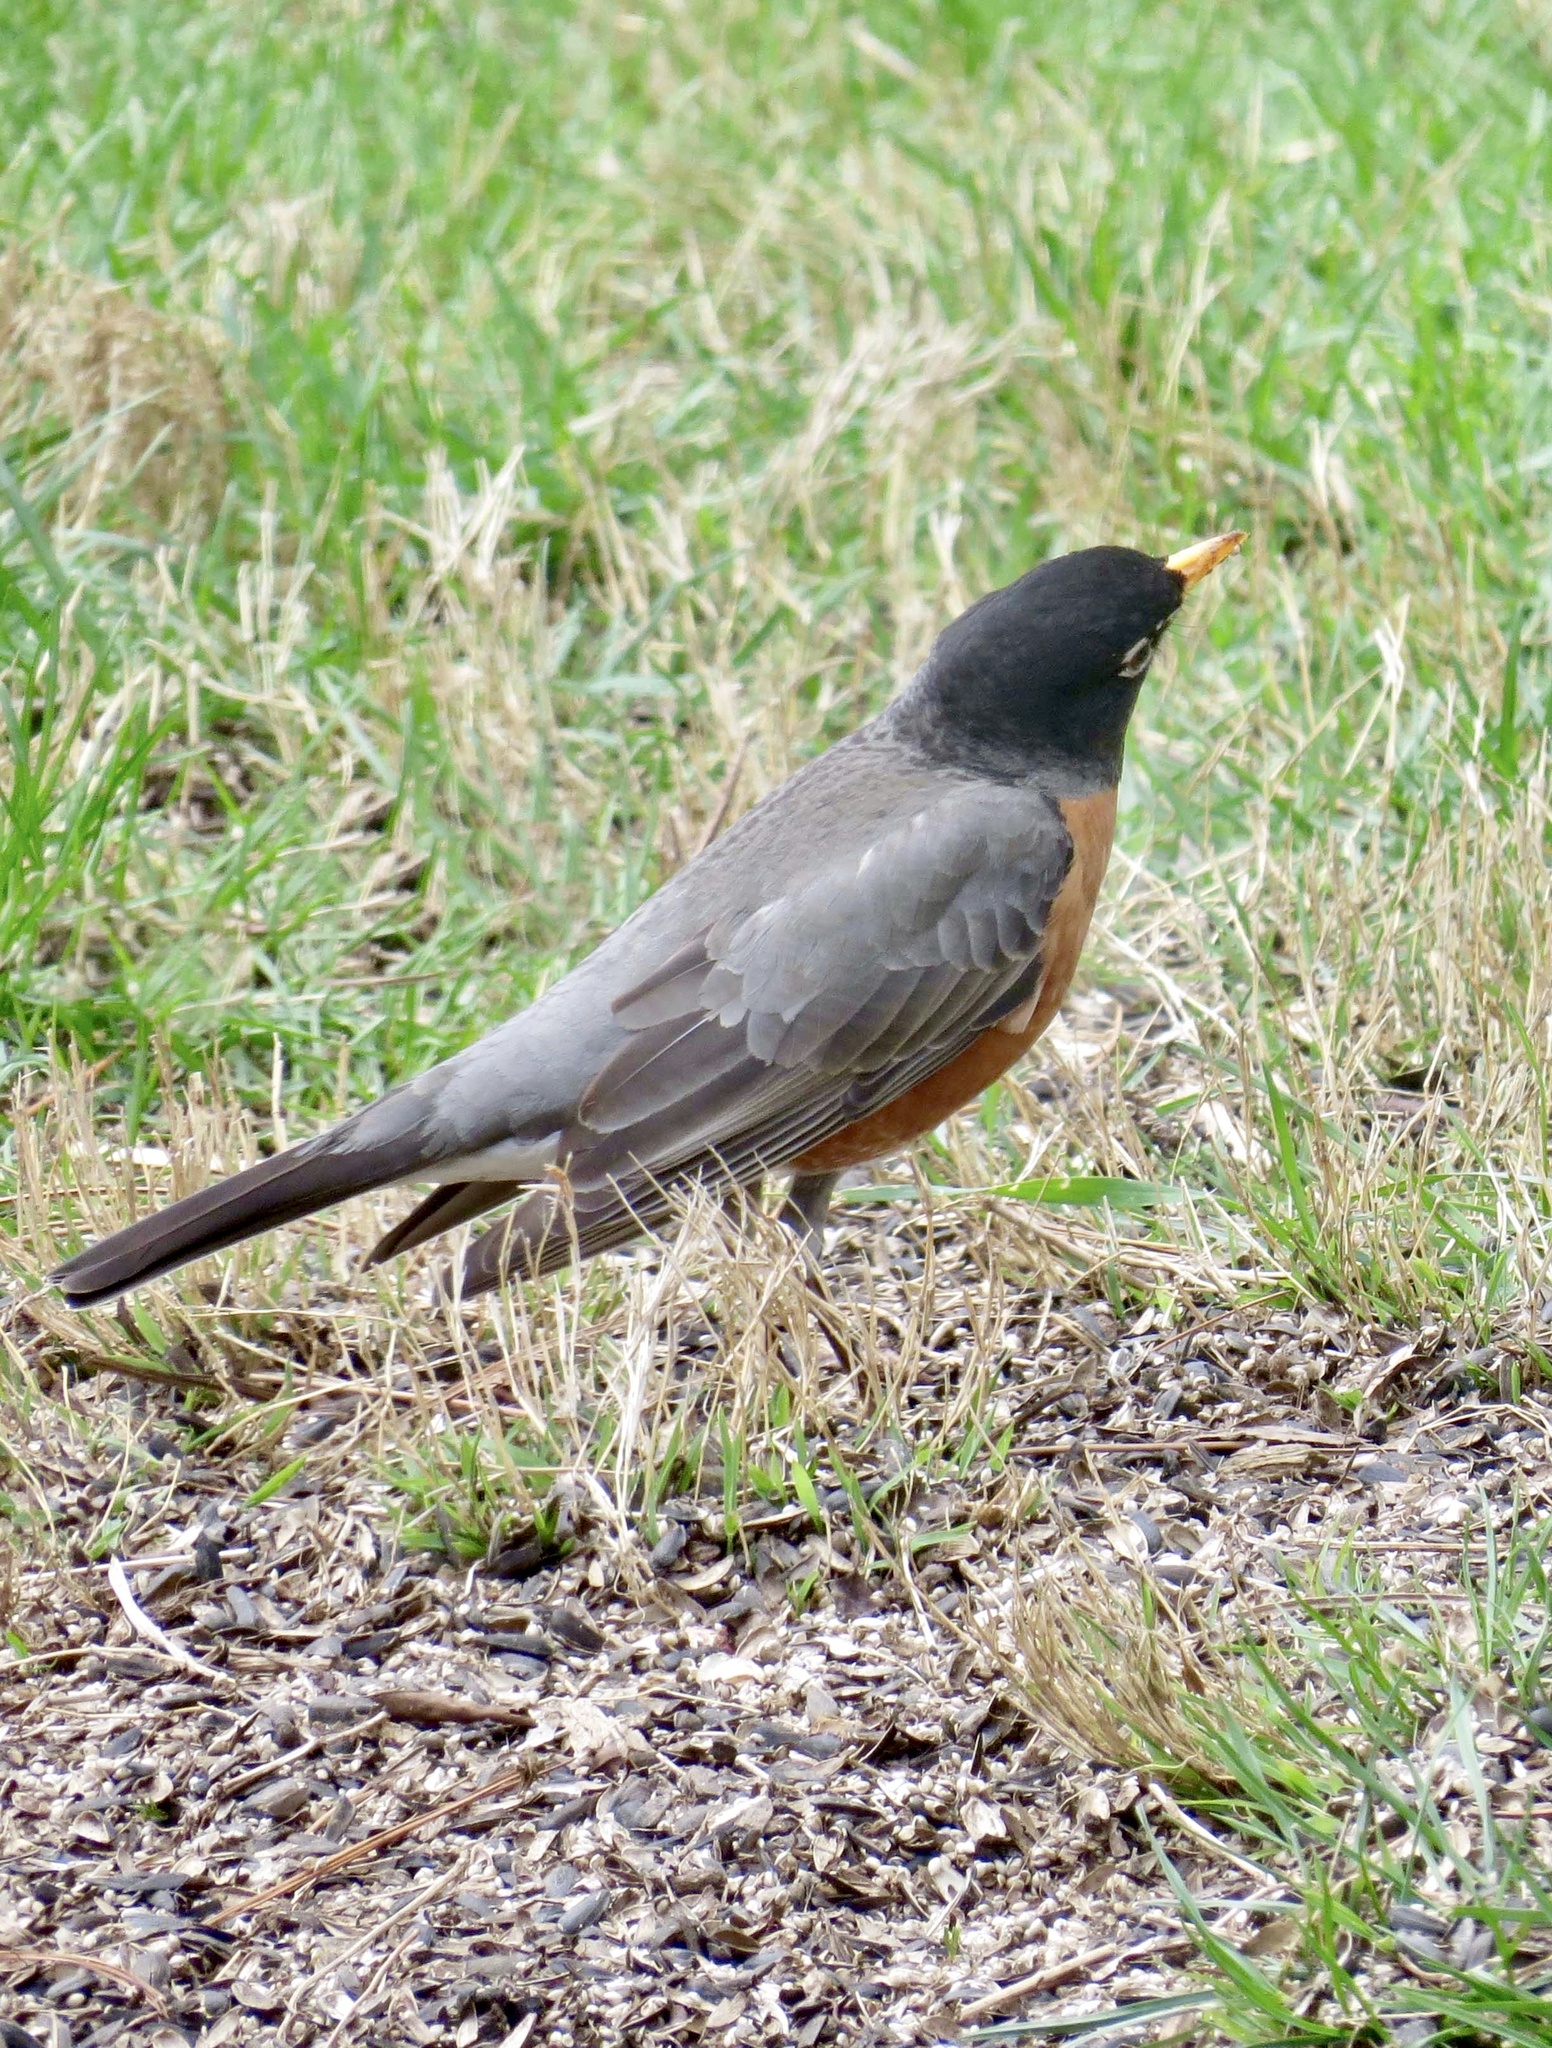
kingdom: Animalia
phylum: Chordata
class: Aves
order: Passeriformes
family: Turdidae
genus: Turdus
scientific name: Turdus migratorius
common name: American robin
